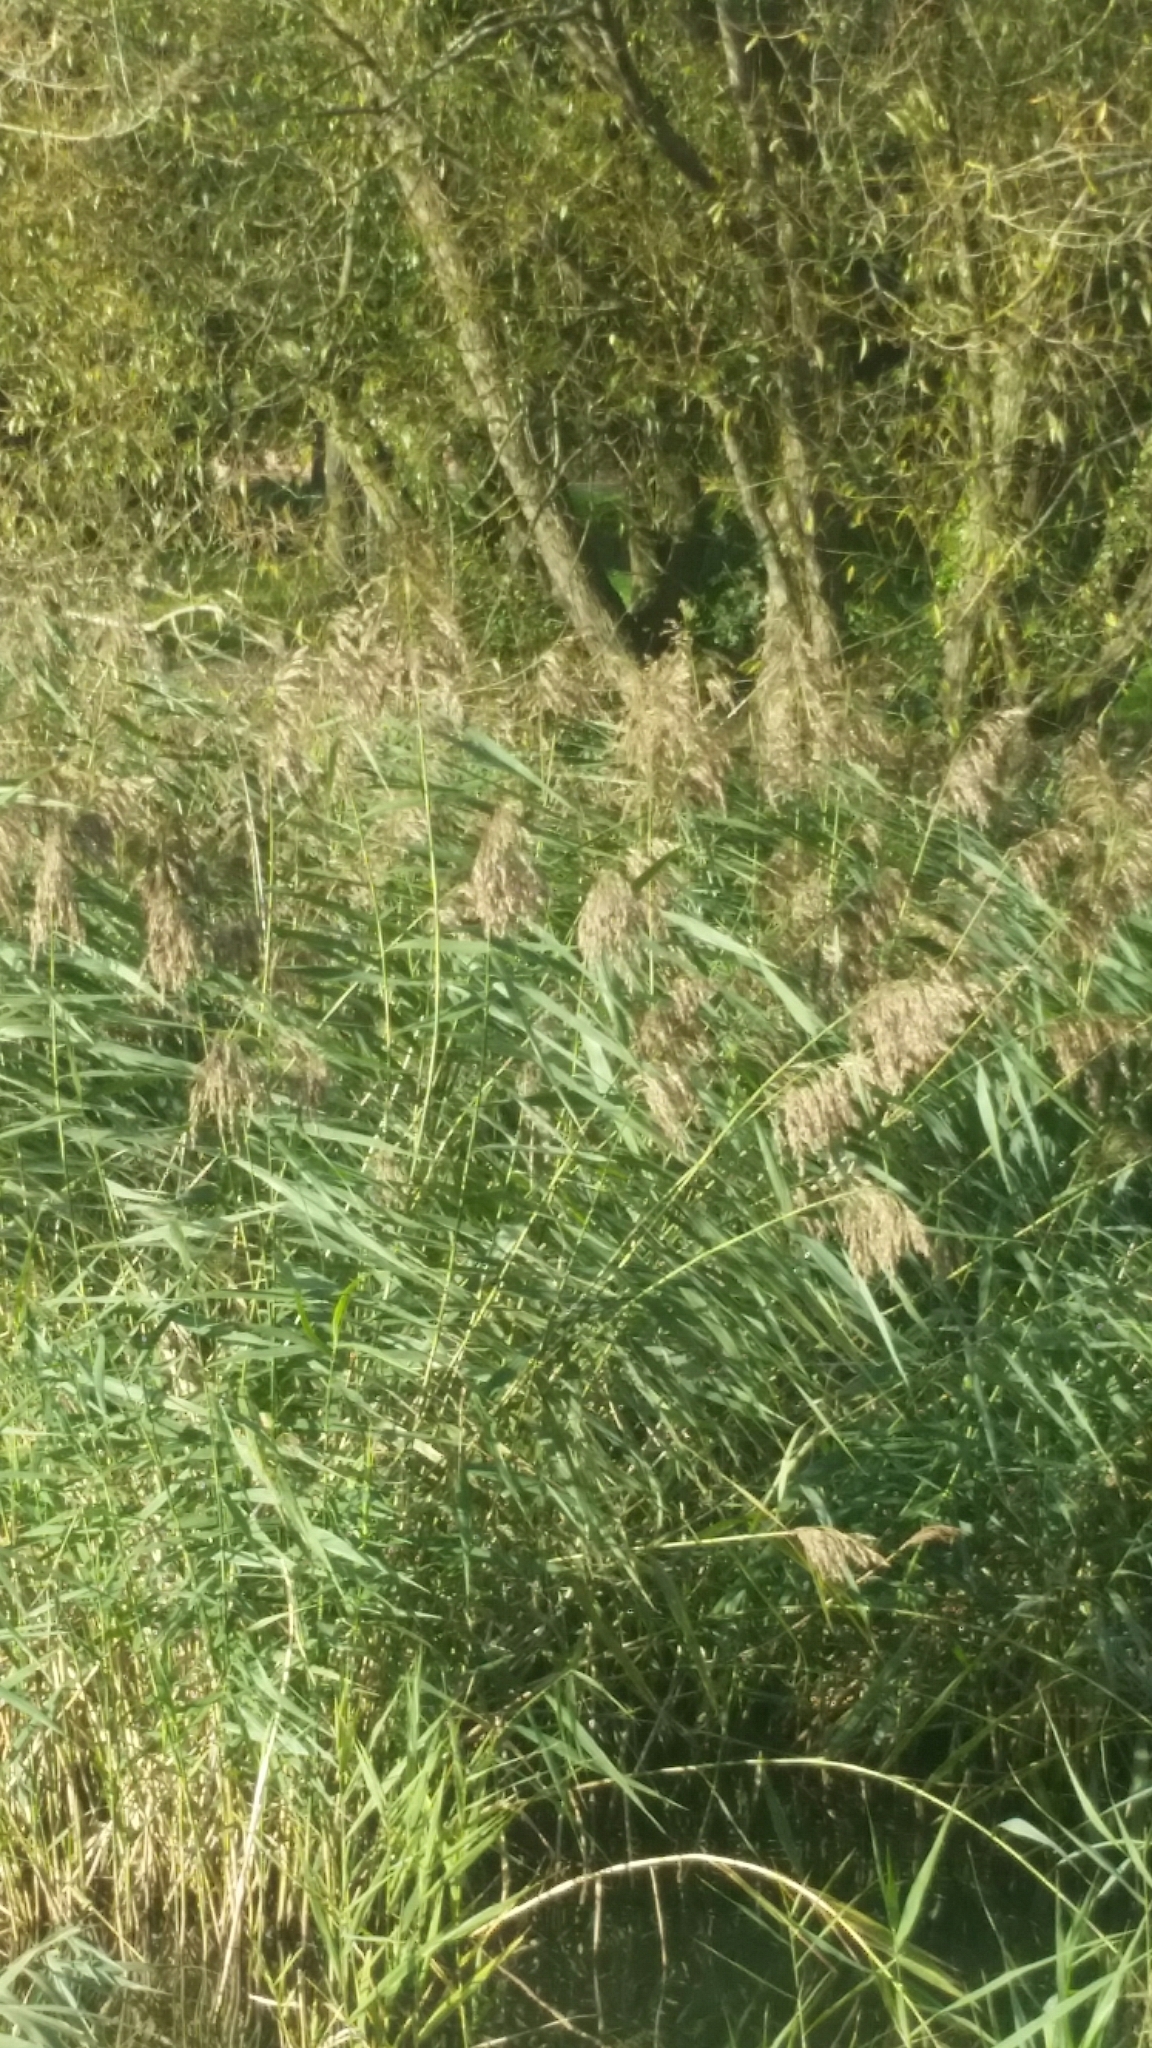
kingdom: Plantae
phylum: Tracheophyta
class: Liliopsida
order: Poales
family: Poaceae
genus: Phragmites
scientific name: Phragmites australis
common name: Common reed
